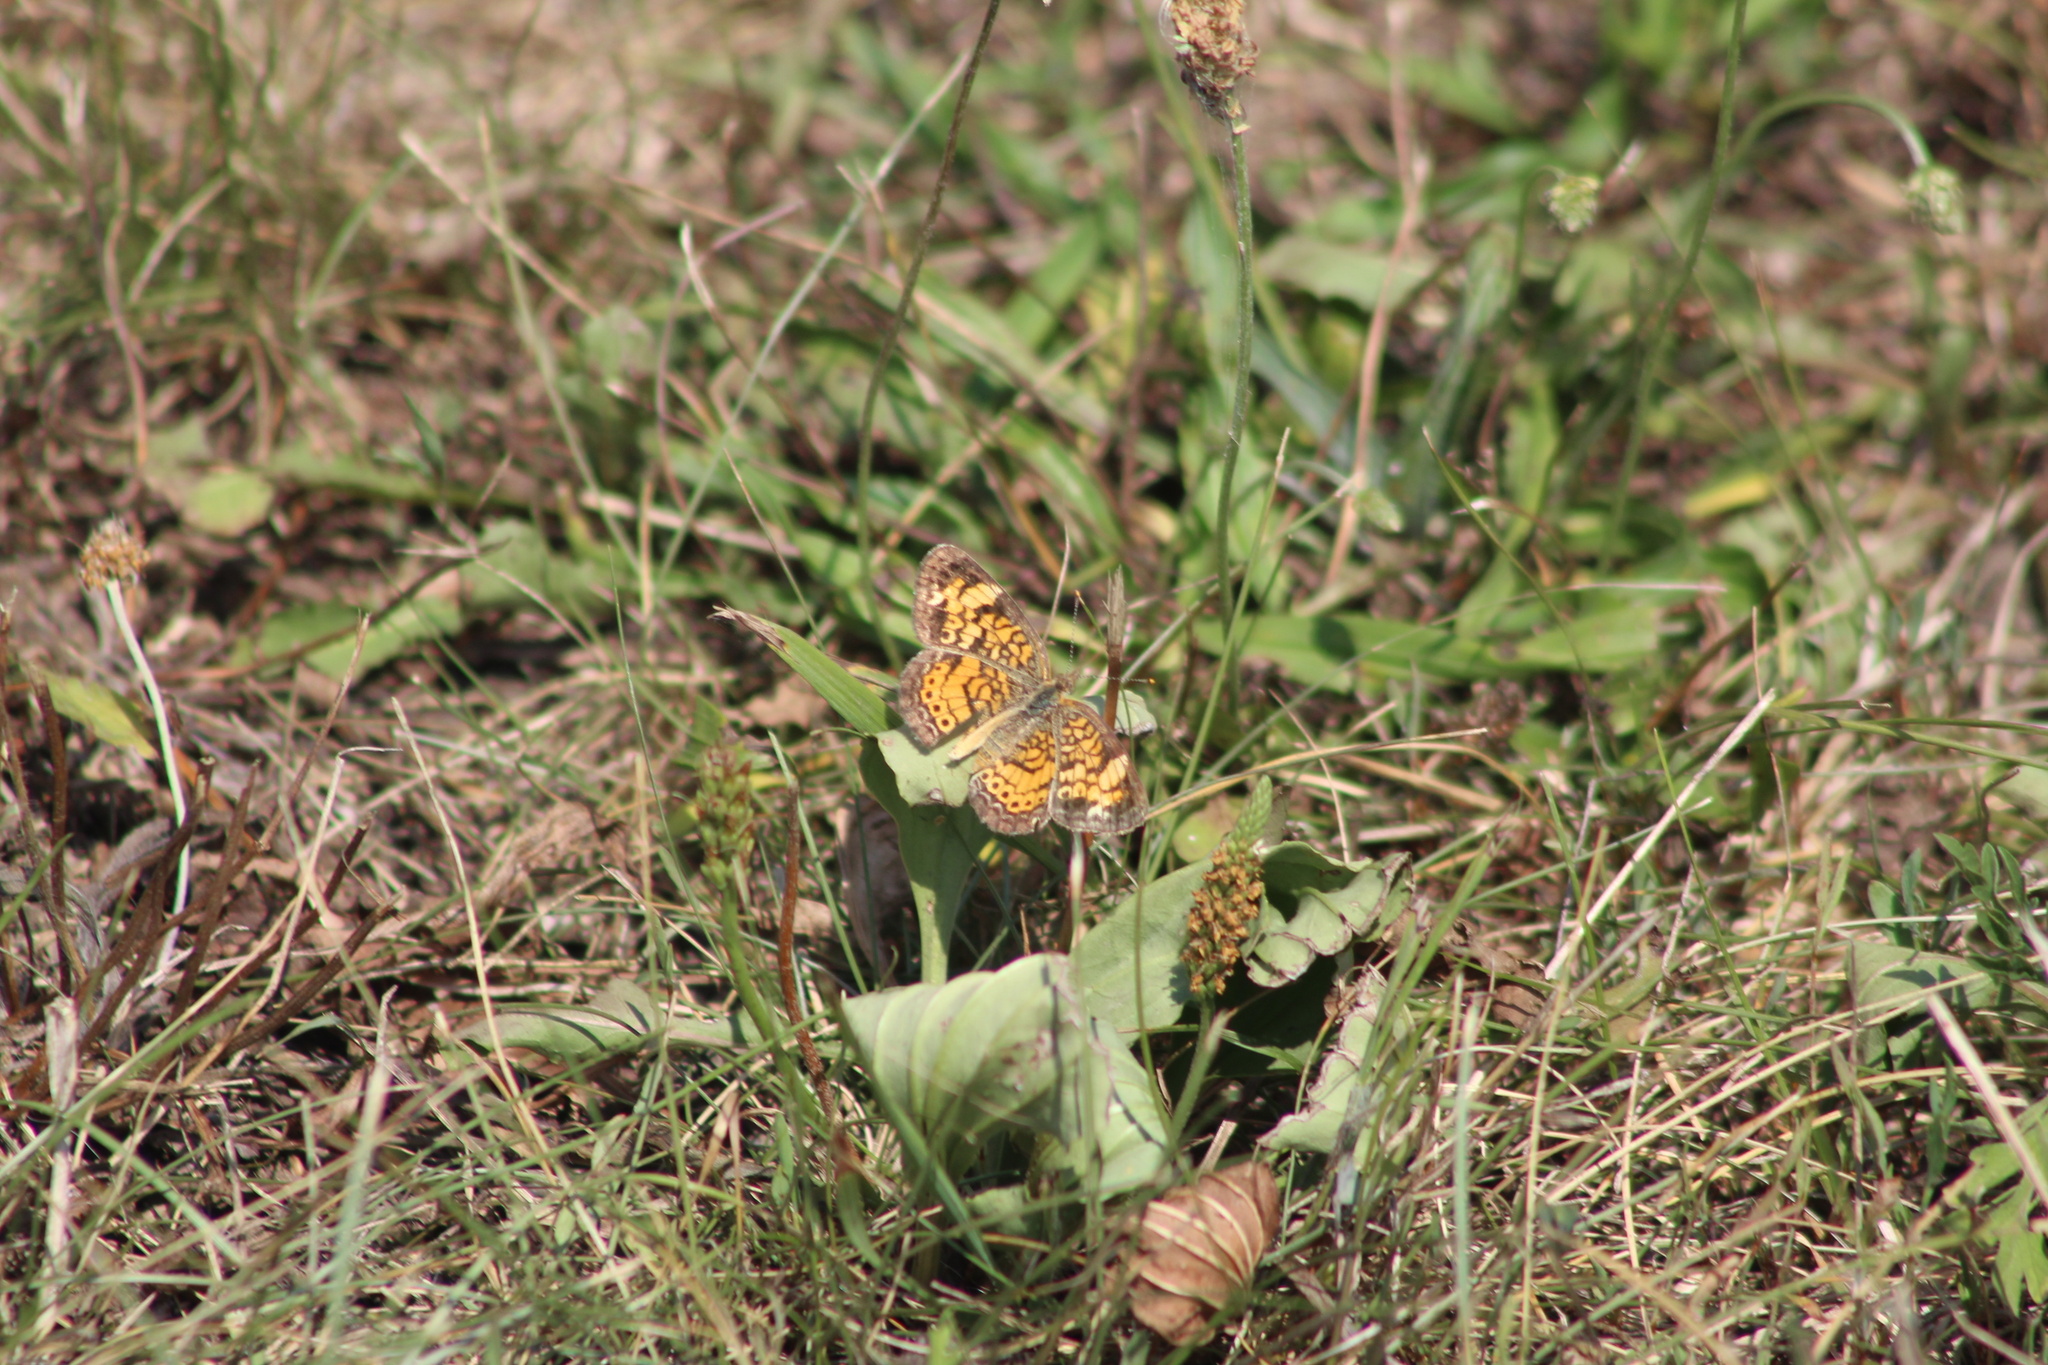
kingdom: Animalia
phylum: Arthropoda
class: Insecta
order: Lepidoptera
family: Nymphalidae
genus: Phyciodes
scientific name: Phyciodes tharos
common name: Pearl crescent
